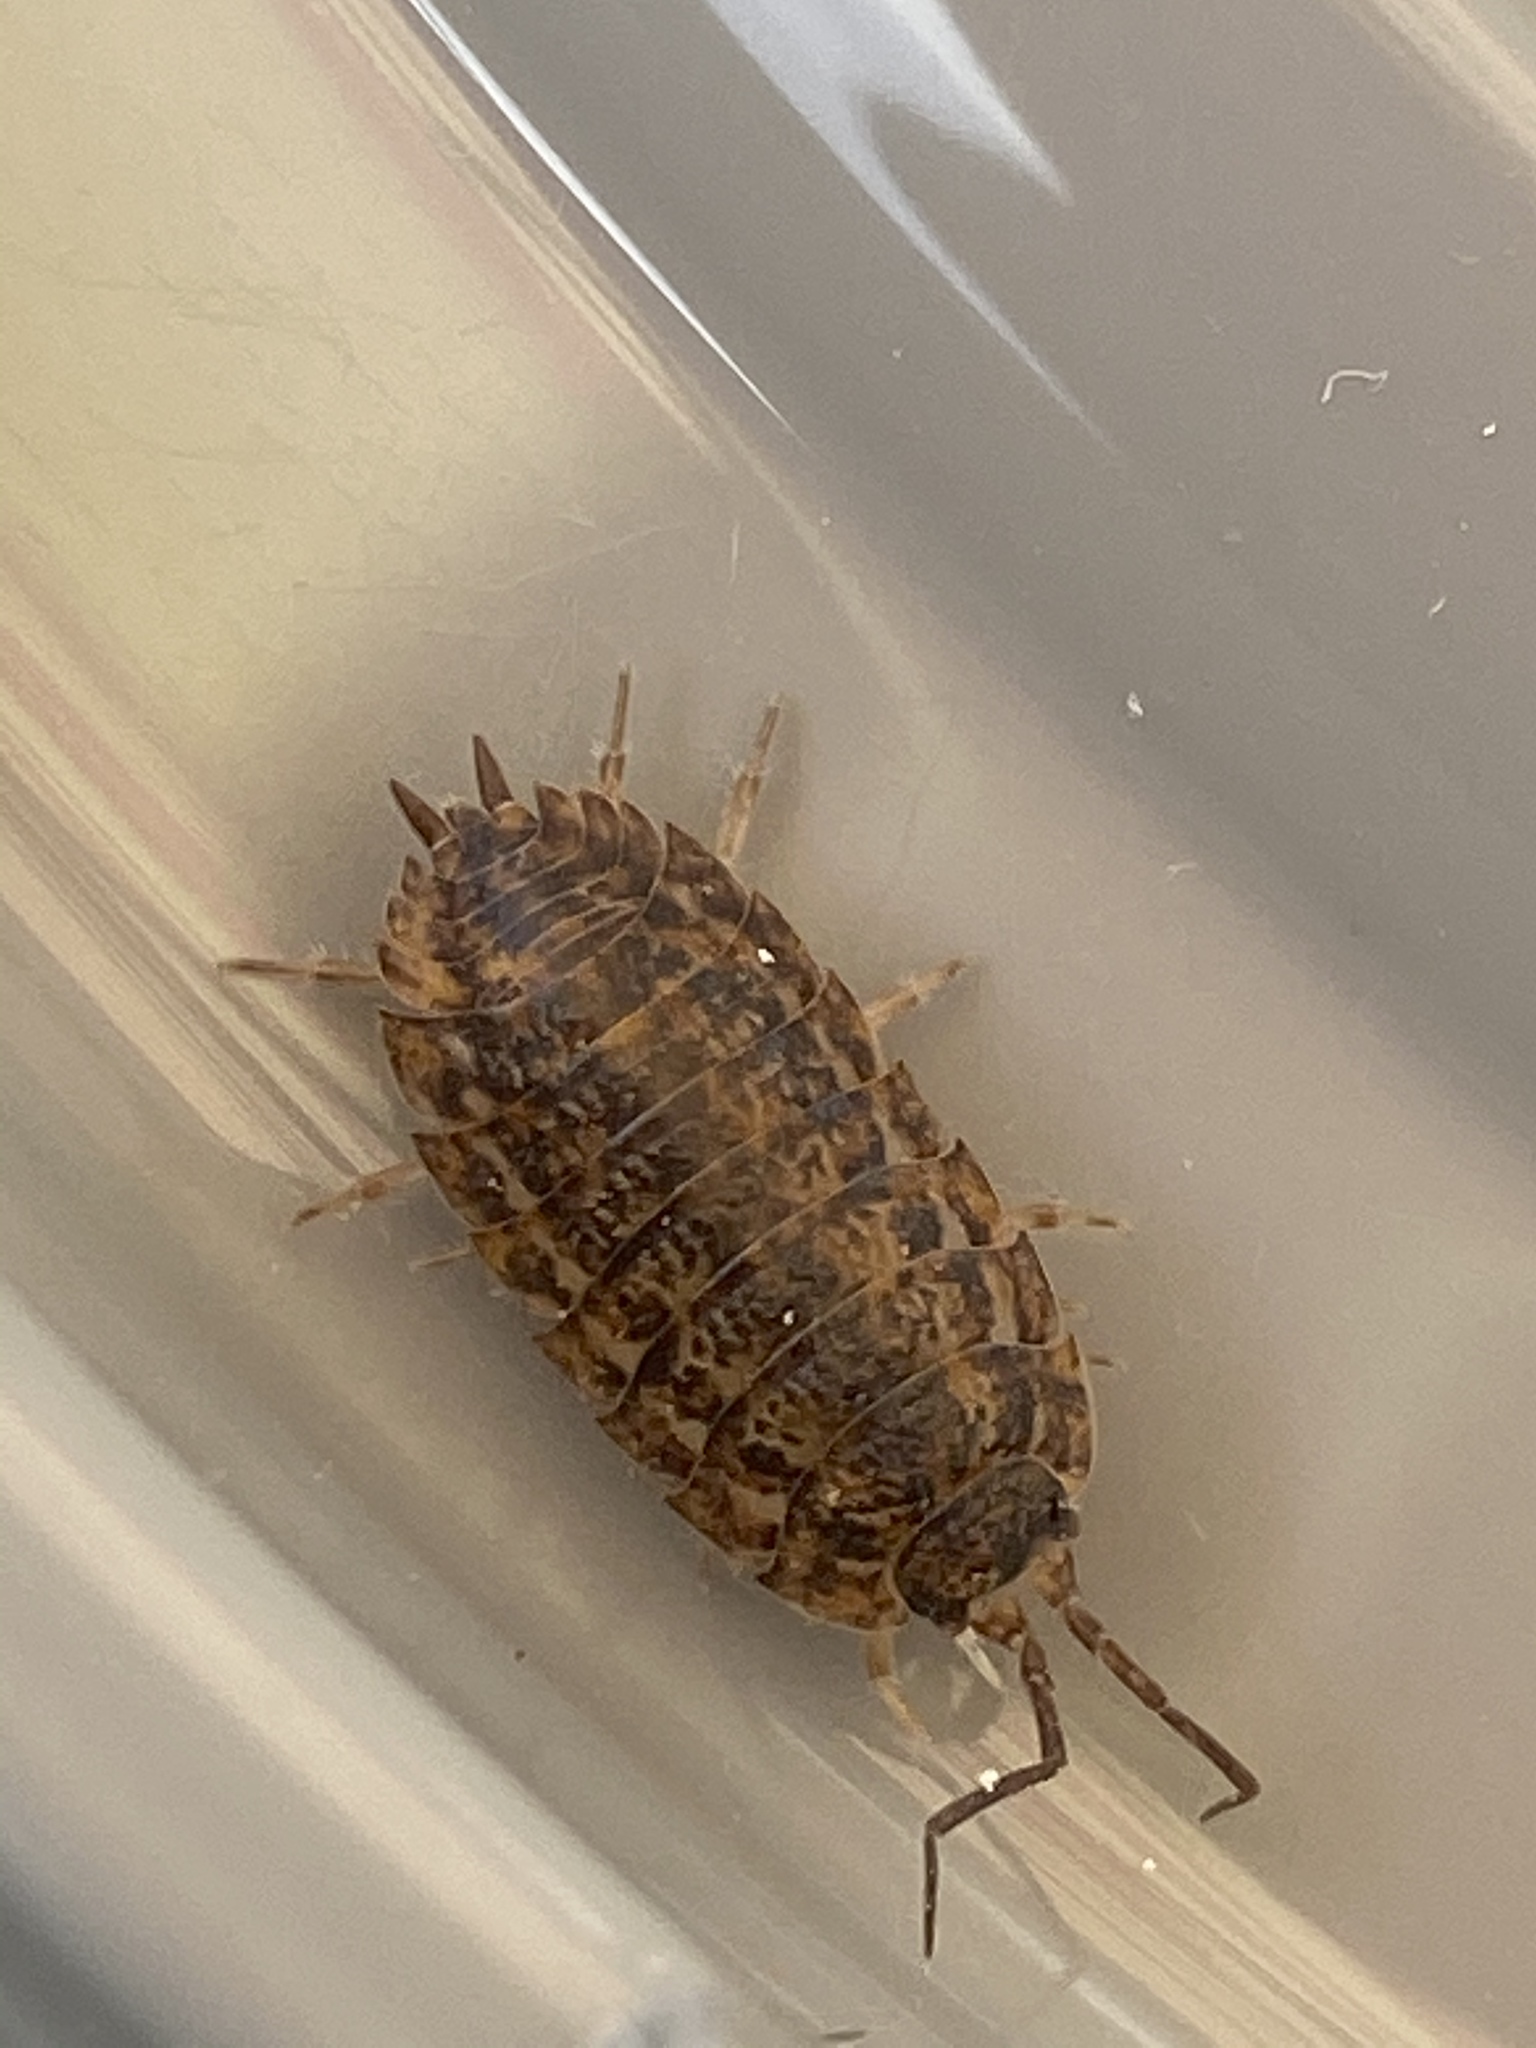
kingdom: Animalia
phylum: Arthropoda
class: Malacostraca
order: Isopoda
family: Trachelipodidae
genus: Trachelipus
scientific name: Trachelipus rathkii
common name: Isopod
